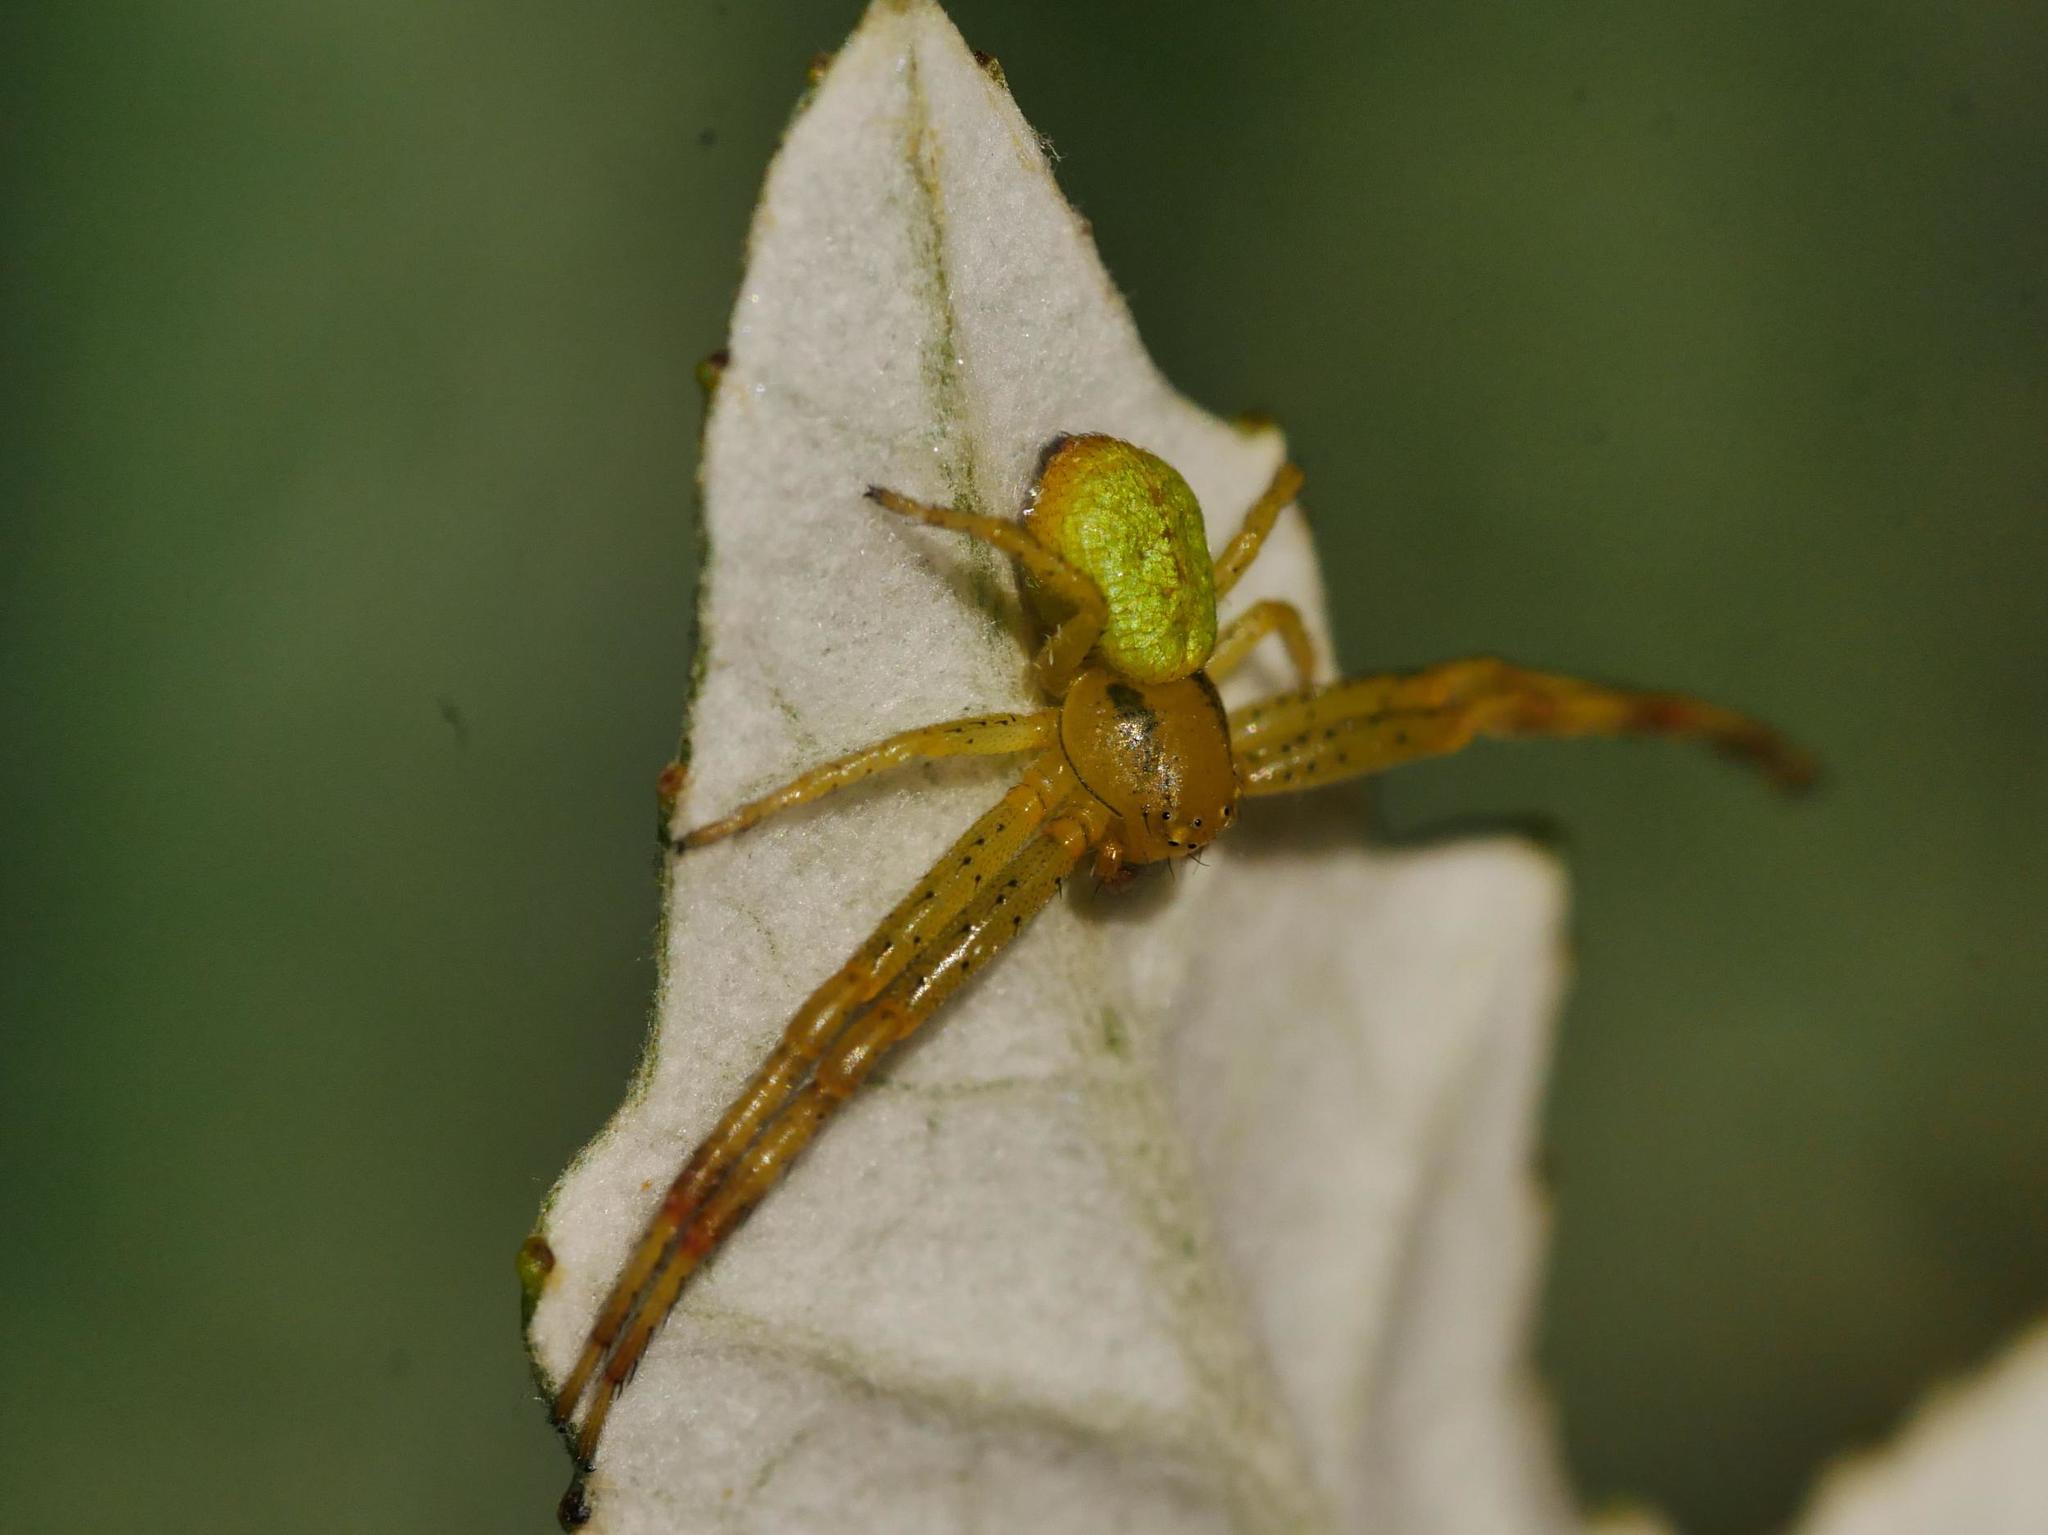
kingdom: Animalia
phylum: Arthropoda
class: Arachnida
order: Araneae
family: Thomisidae
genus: Ebrechtella
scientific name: Ebrechtella tricuspidata
